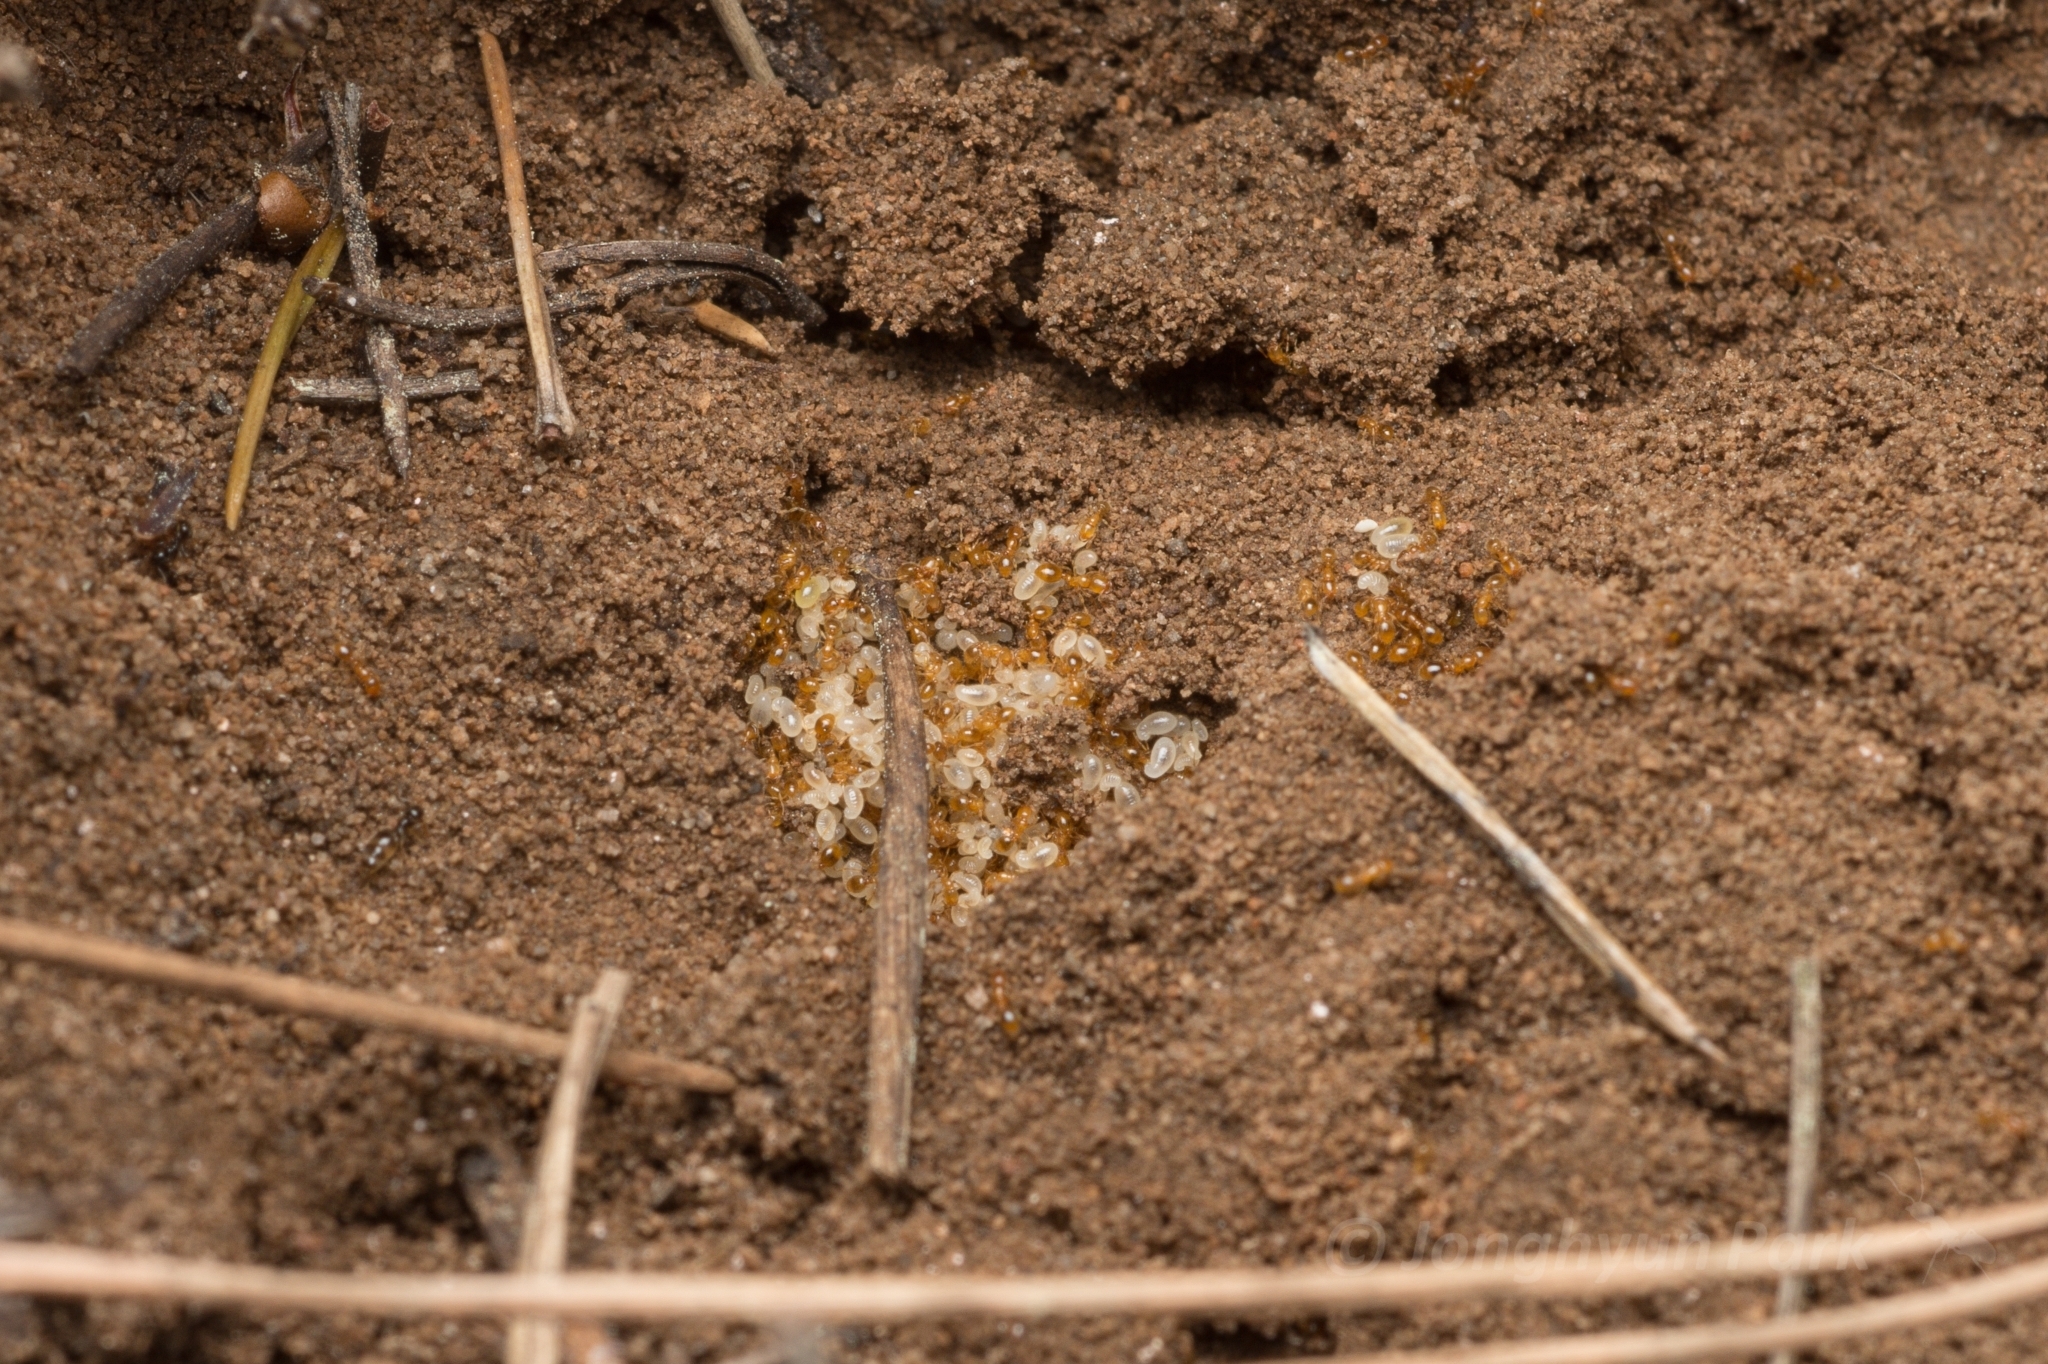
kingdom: Animalia
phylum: Arthropoda
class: Insecta
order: Hymenoptera
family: Formicidae
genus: Solenopsis
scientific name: Solenopsis japonica
